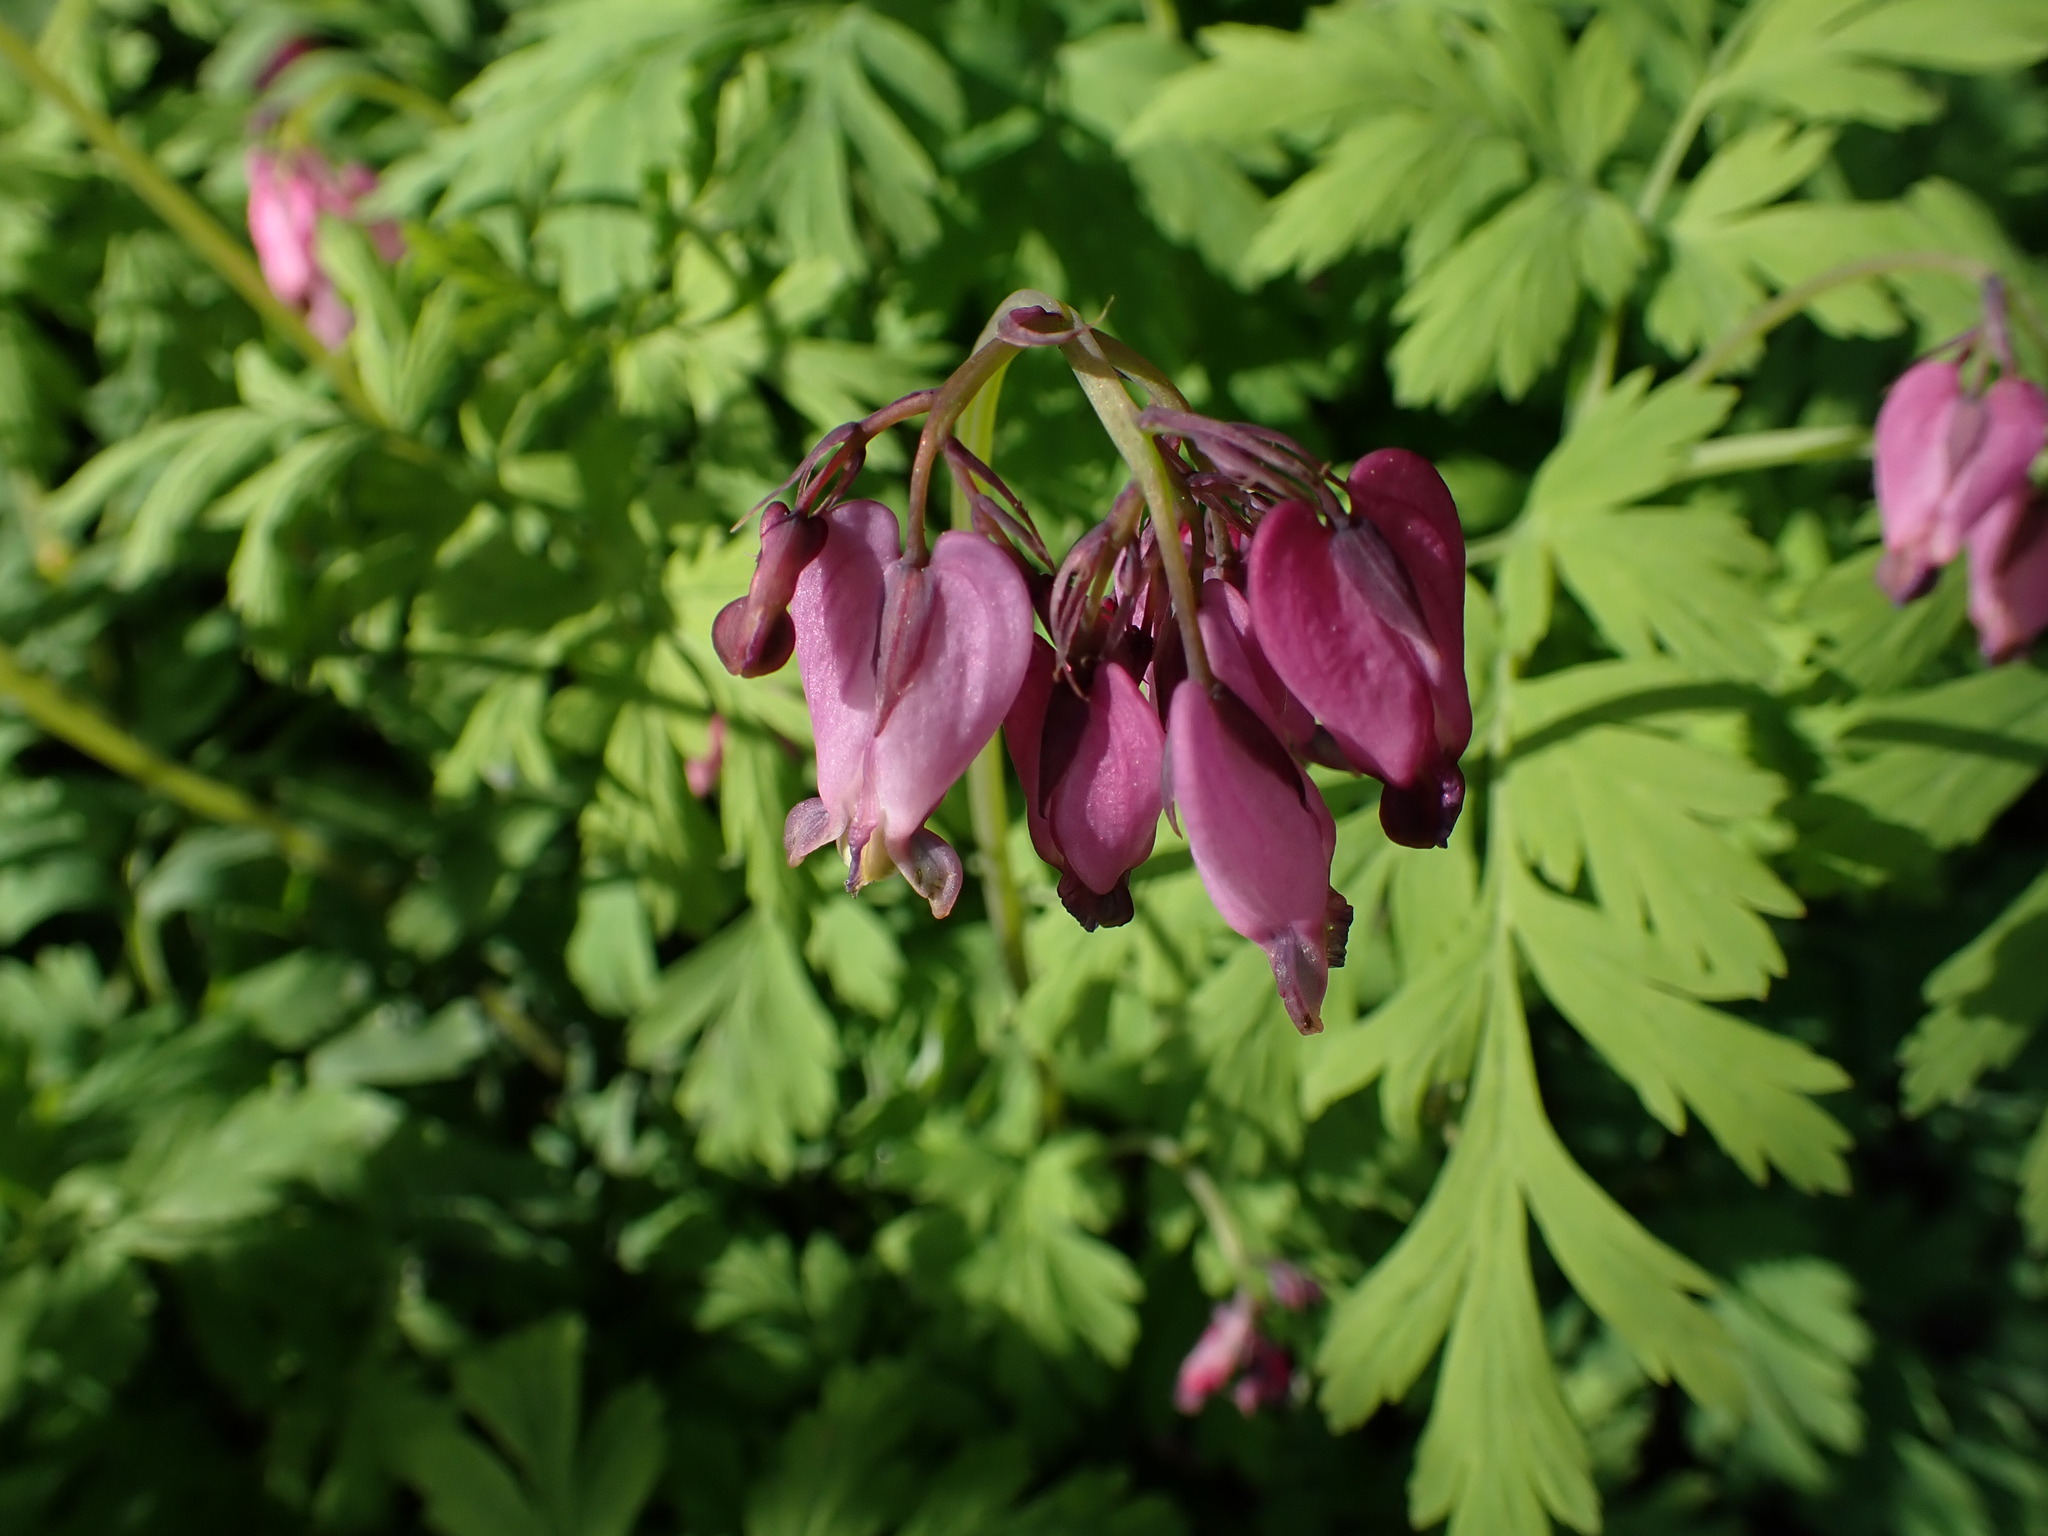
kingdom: Plantae
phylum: Tracheophyta
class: Magnoliopsida
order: Ranunculales
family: Papaveraceae
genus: Dicentra
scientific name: Dicentra formosa
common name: Bleeding-heart
